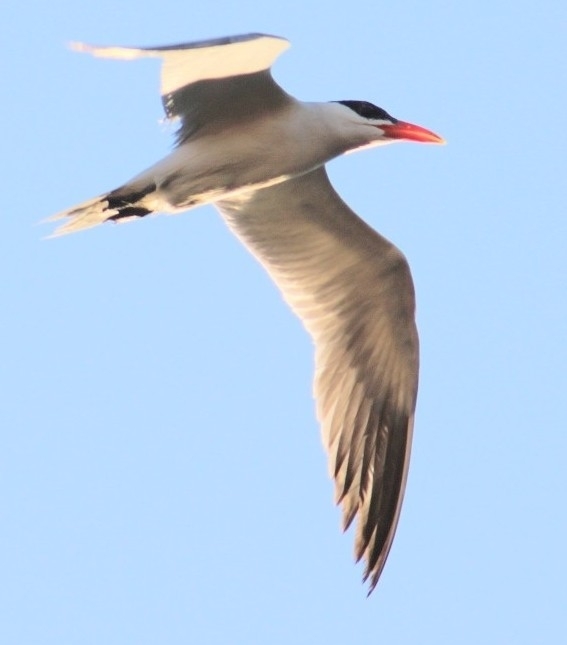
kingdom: Animalia
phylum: Chordata
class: Aves
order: Charadriiformes
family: Laridae
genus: Hydroprogne
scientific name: Hydroprogne caspia
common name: Caspian tern
